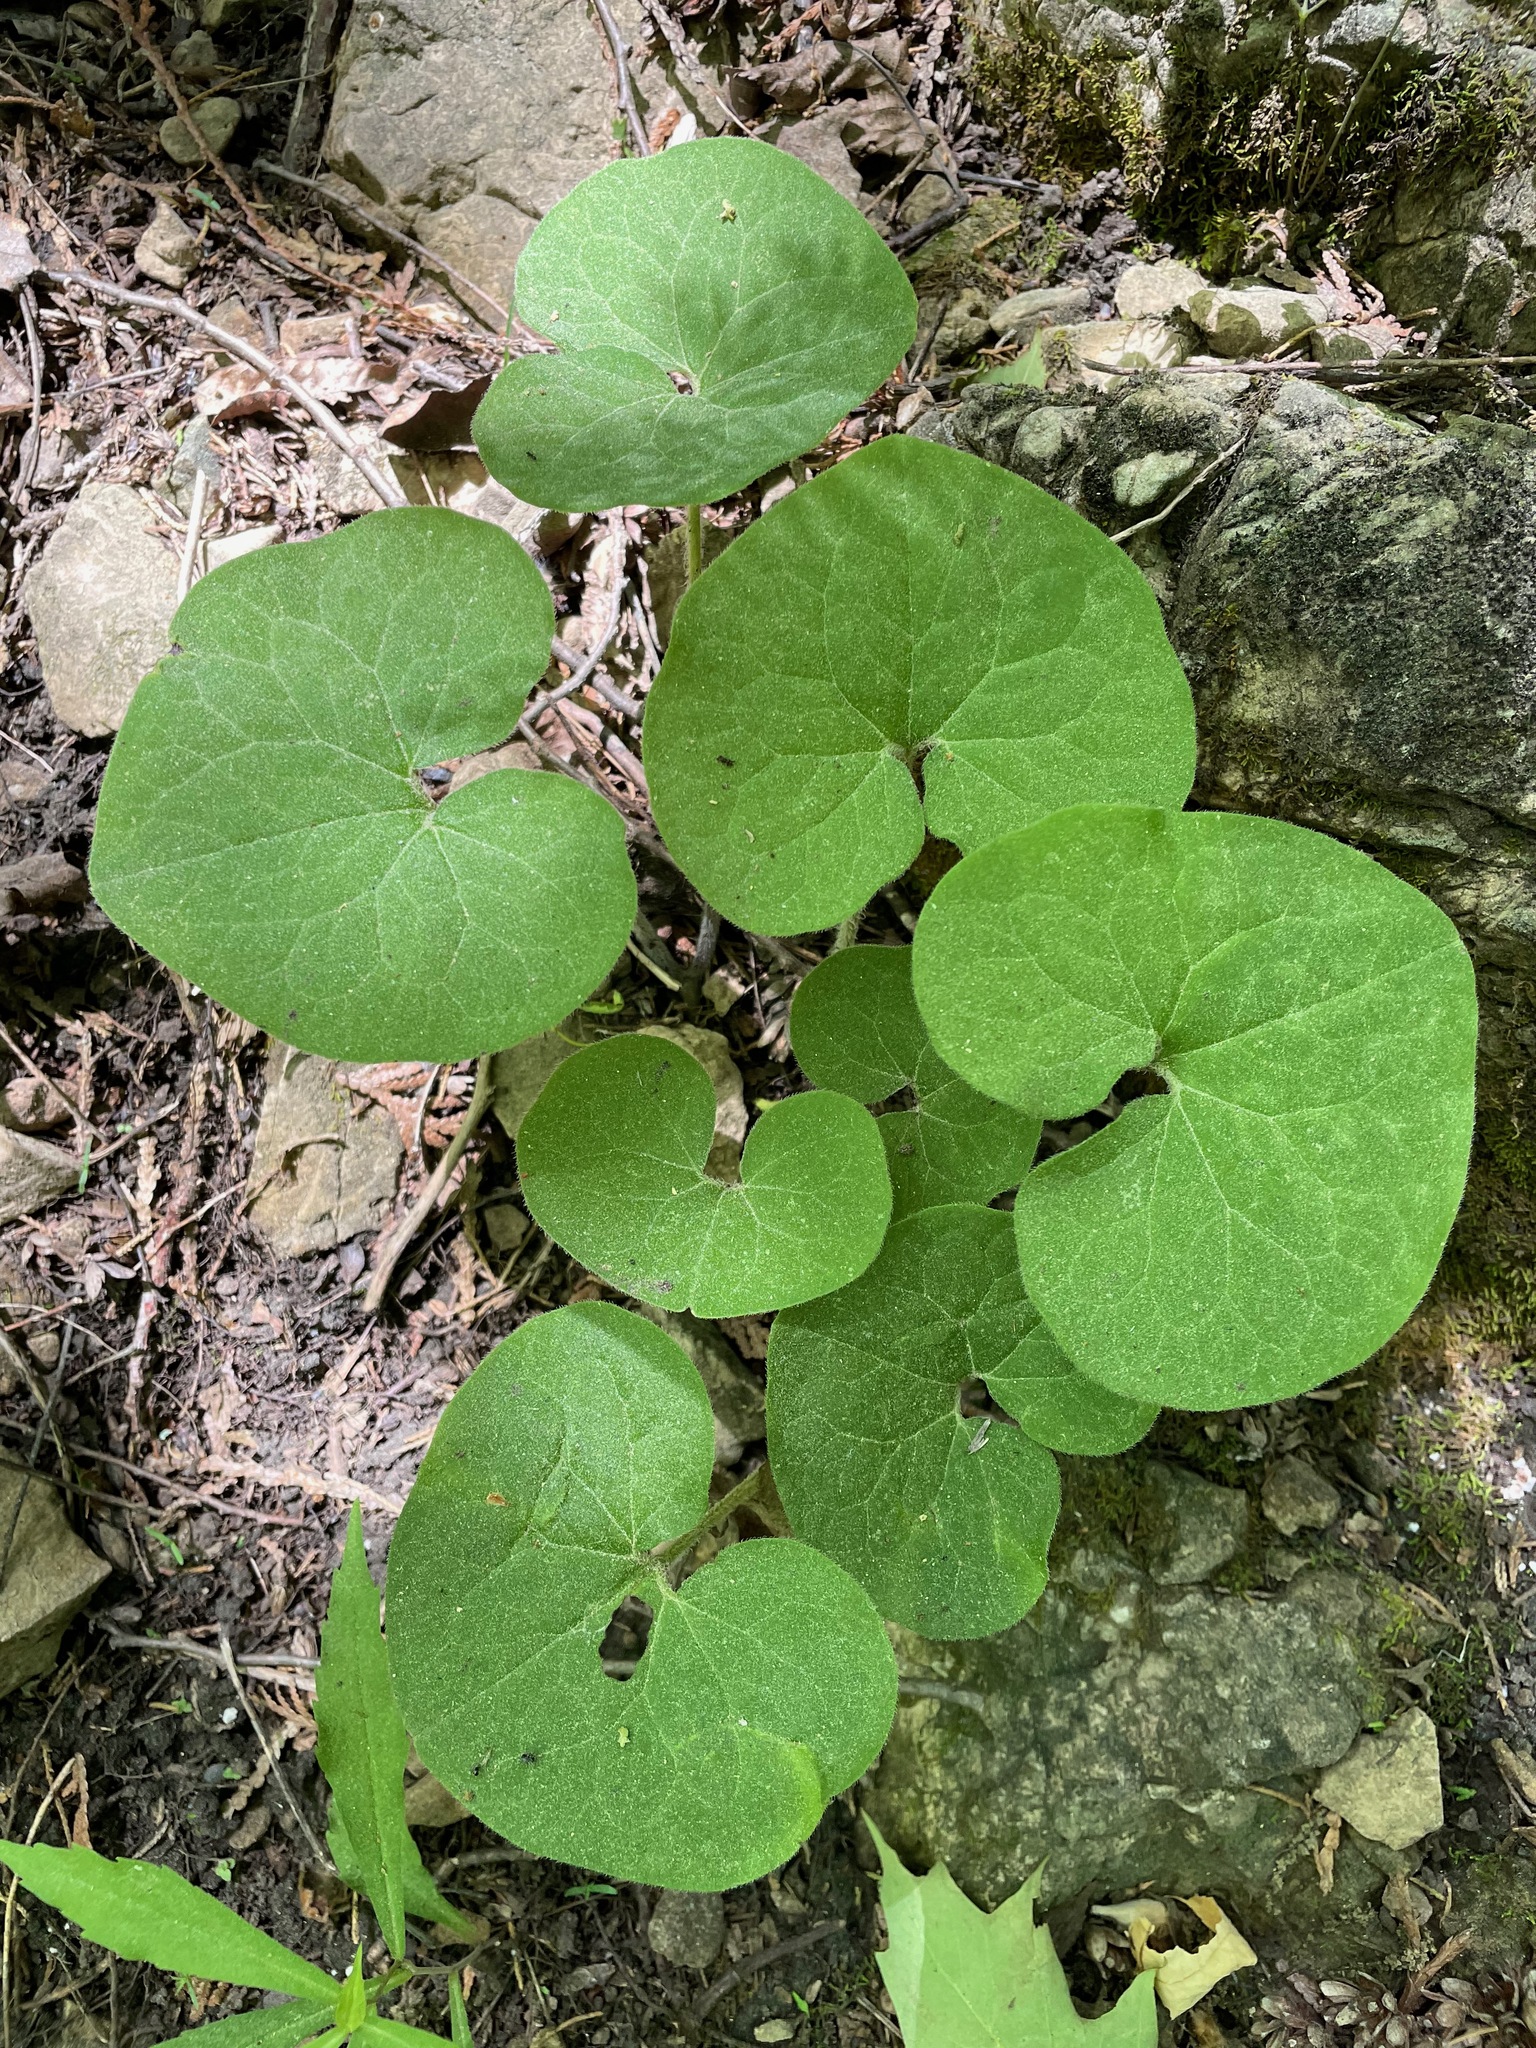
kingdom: Plantae
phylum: Tracheophyta
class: Magnoliopsida
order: Piperales
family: Aristolochiaceae
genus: Asarum
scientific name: Asarum canadense
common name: Wild ginger
